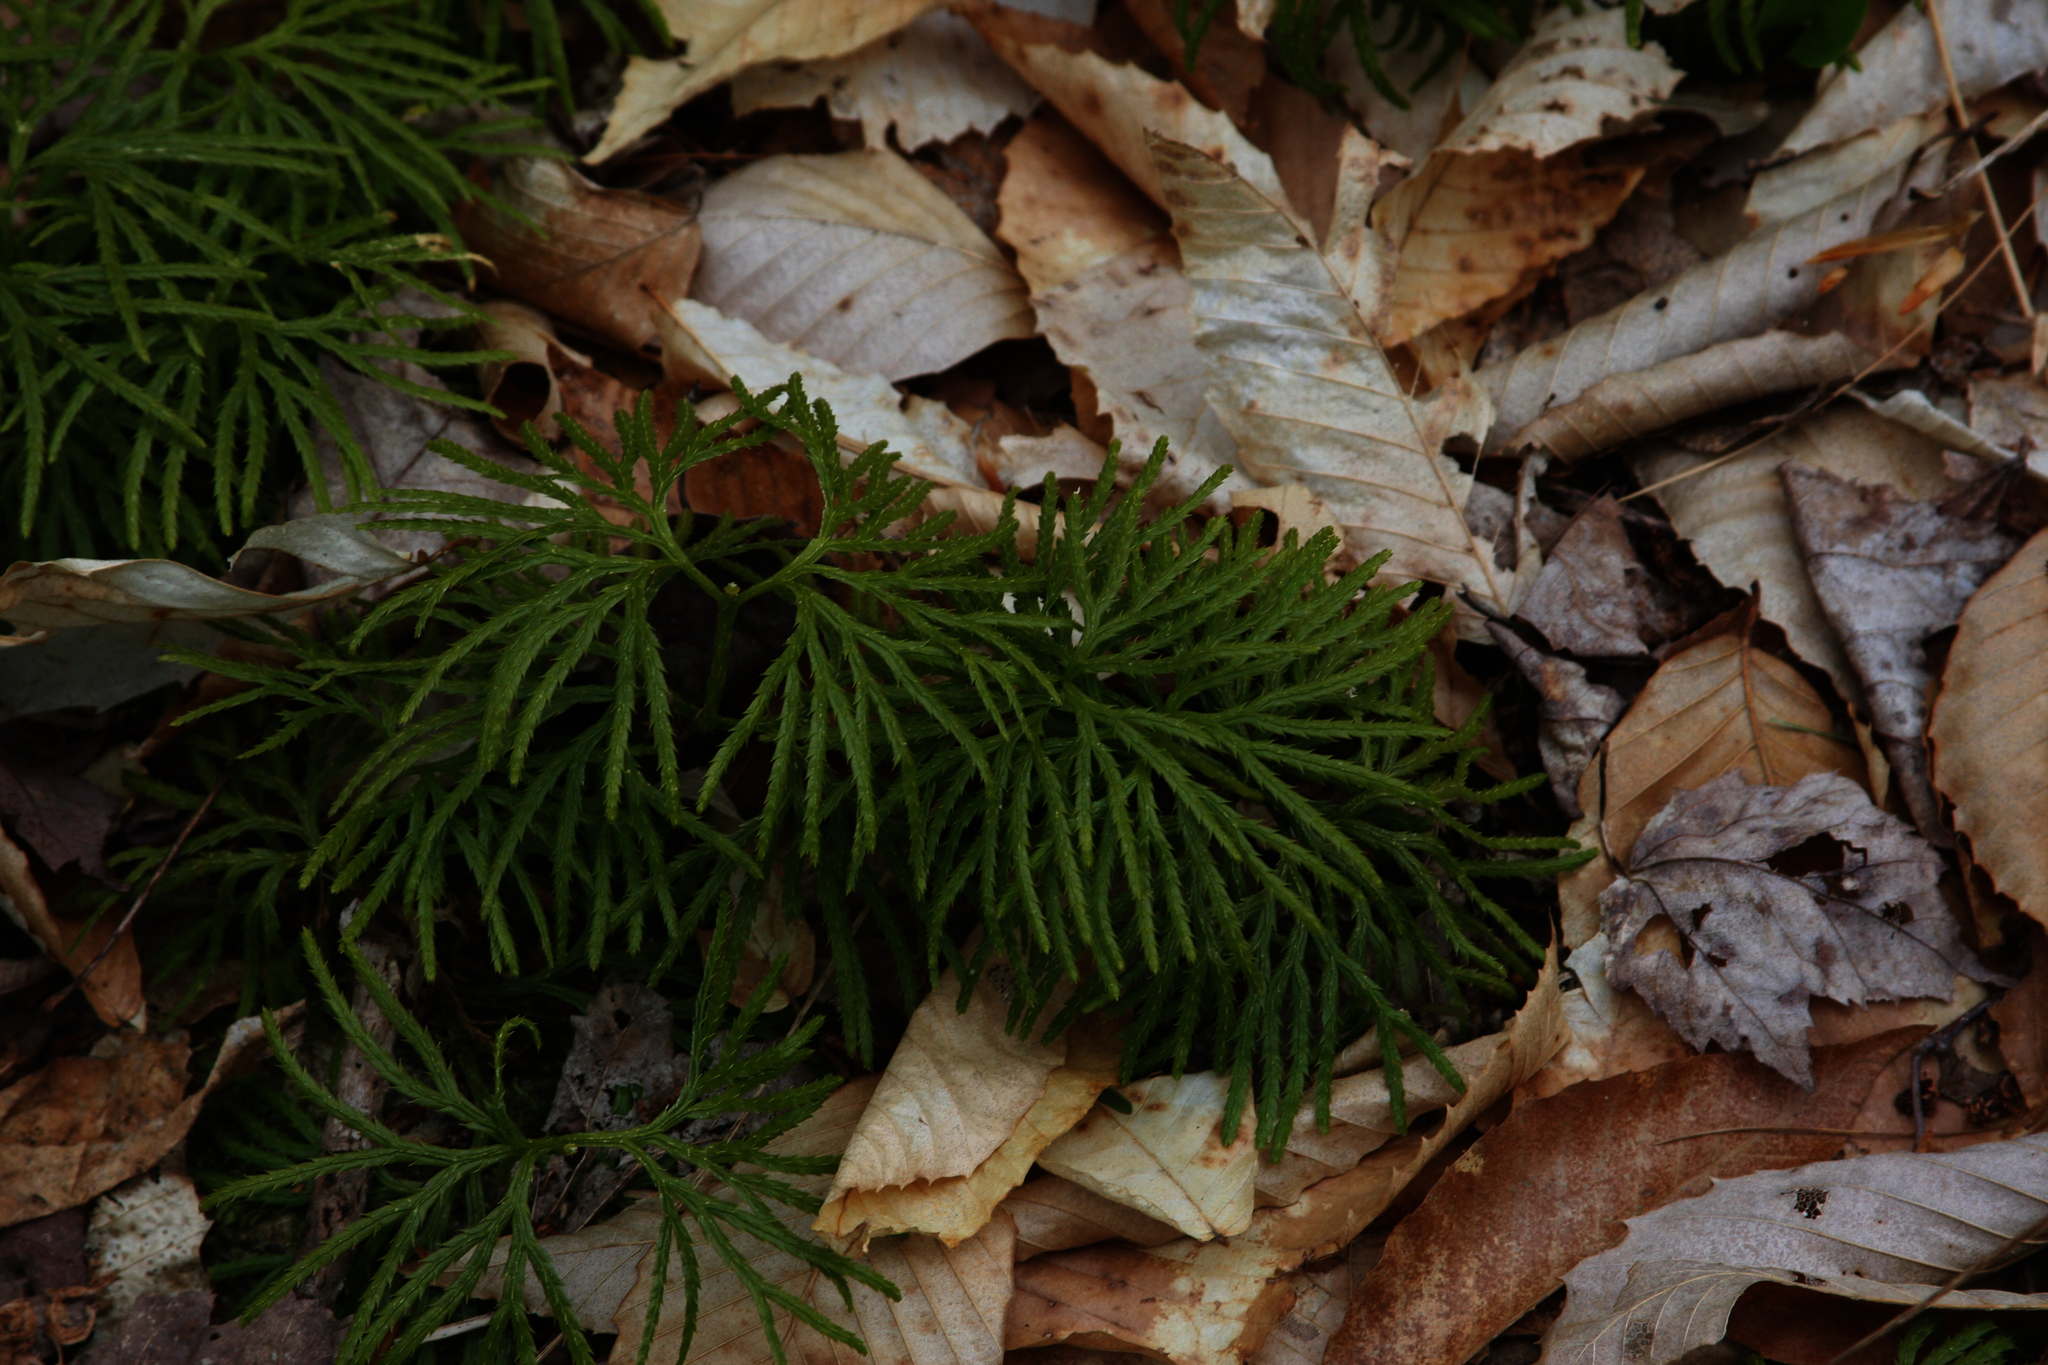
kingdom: Plantae
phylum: Tracheophyta
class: Lycopodiopsida
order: Lycopodiales
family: Lycopodiaceae
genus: Diphasiastrum
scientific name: Diphasiastrum digitatum
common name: Southern running-pine
